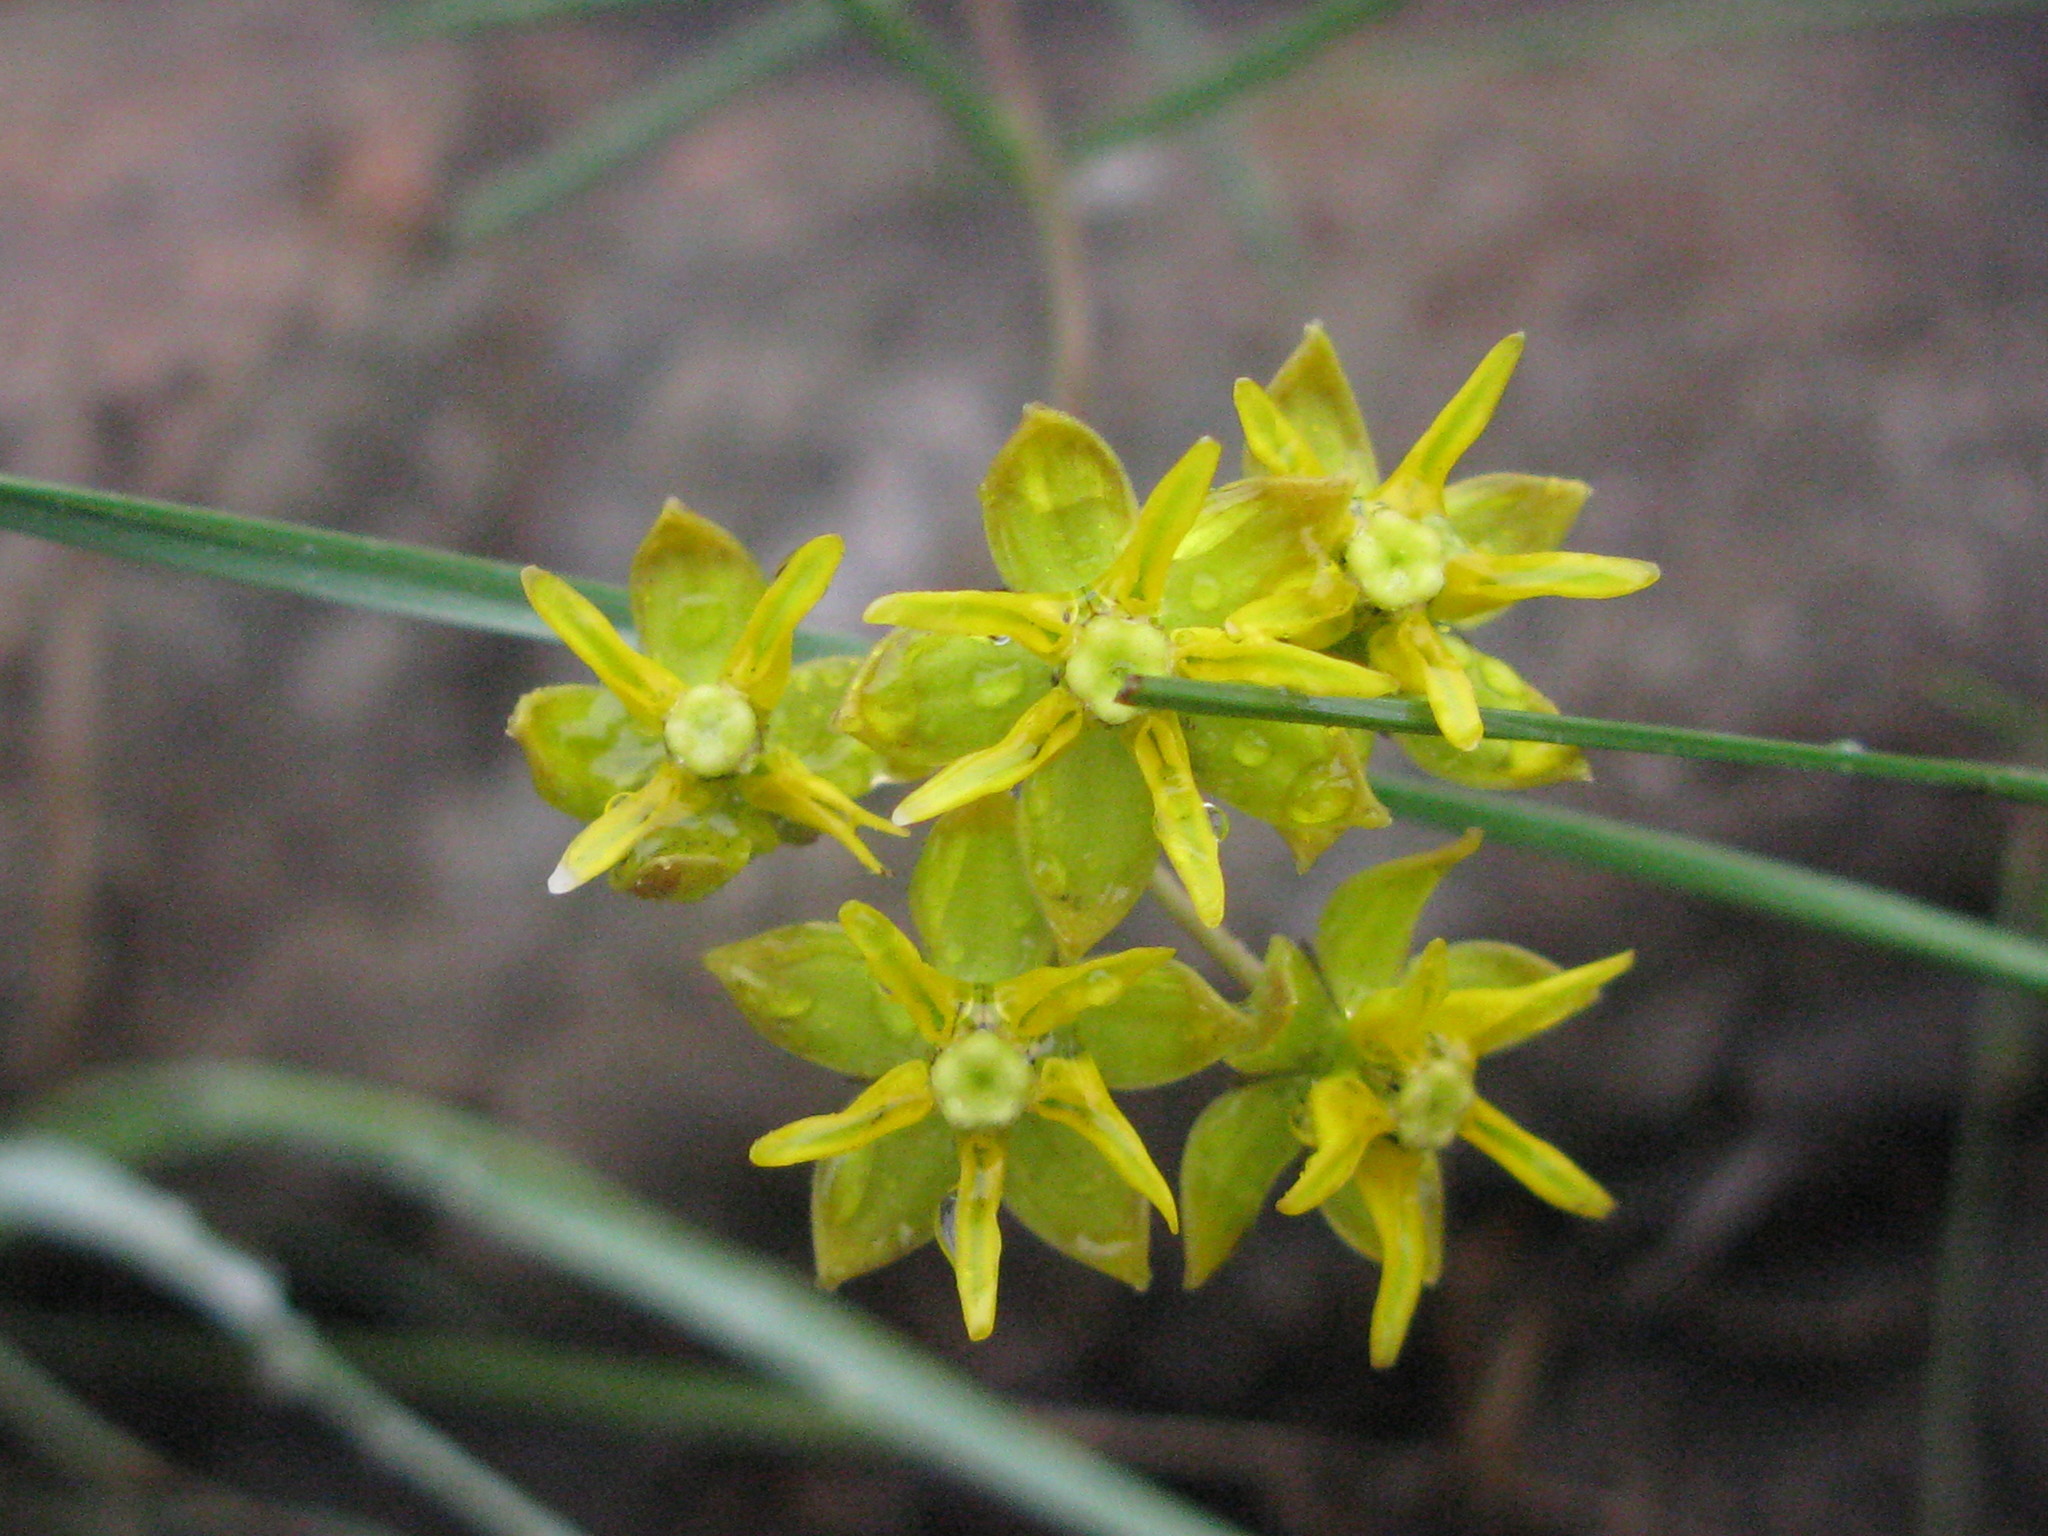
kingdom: Plantae
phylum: Tracheophyta
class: Magnoliopsida
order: Gentianales
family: Apocynaceae
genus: Asclepias
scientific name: Asclepias aurea
